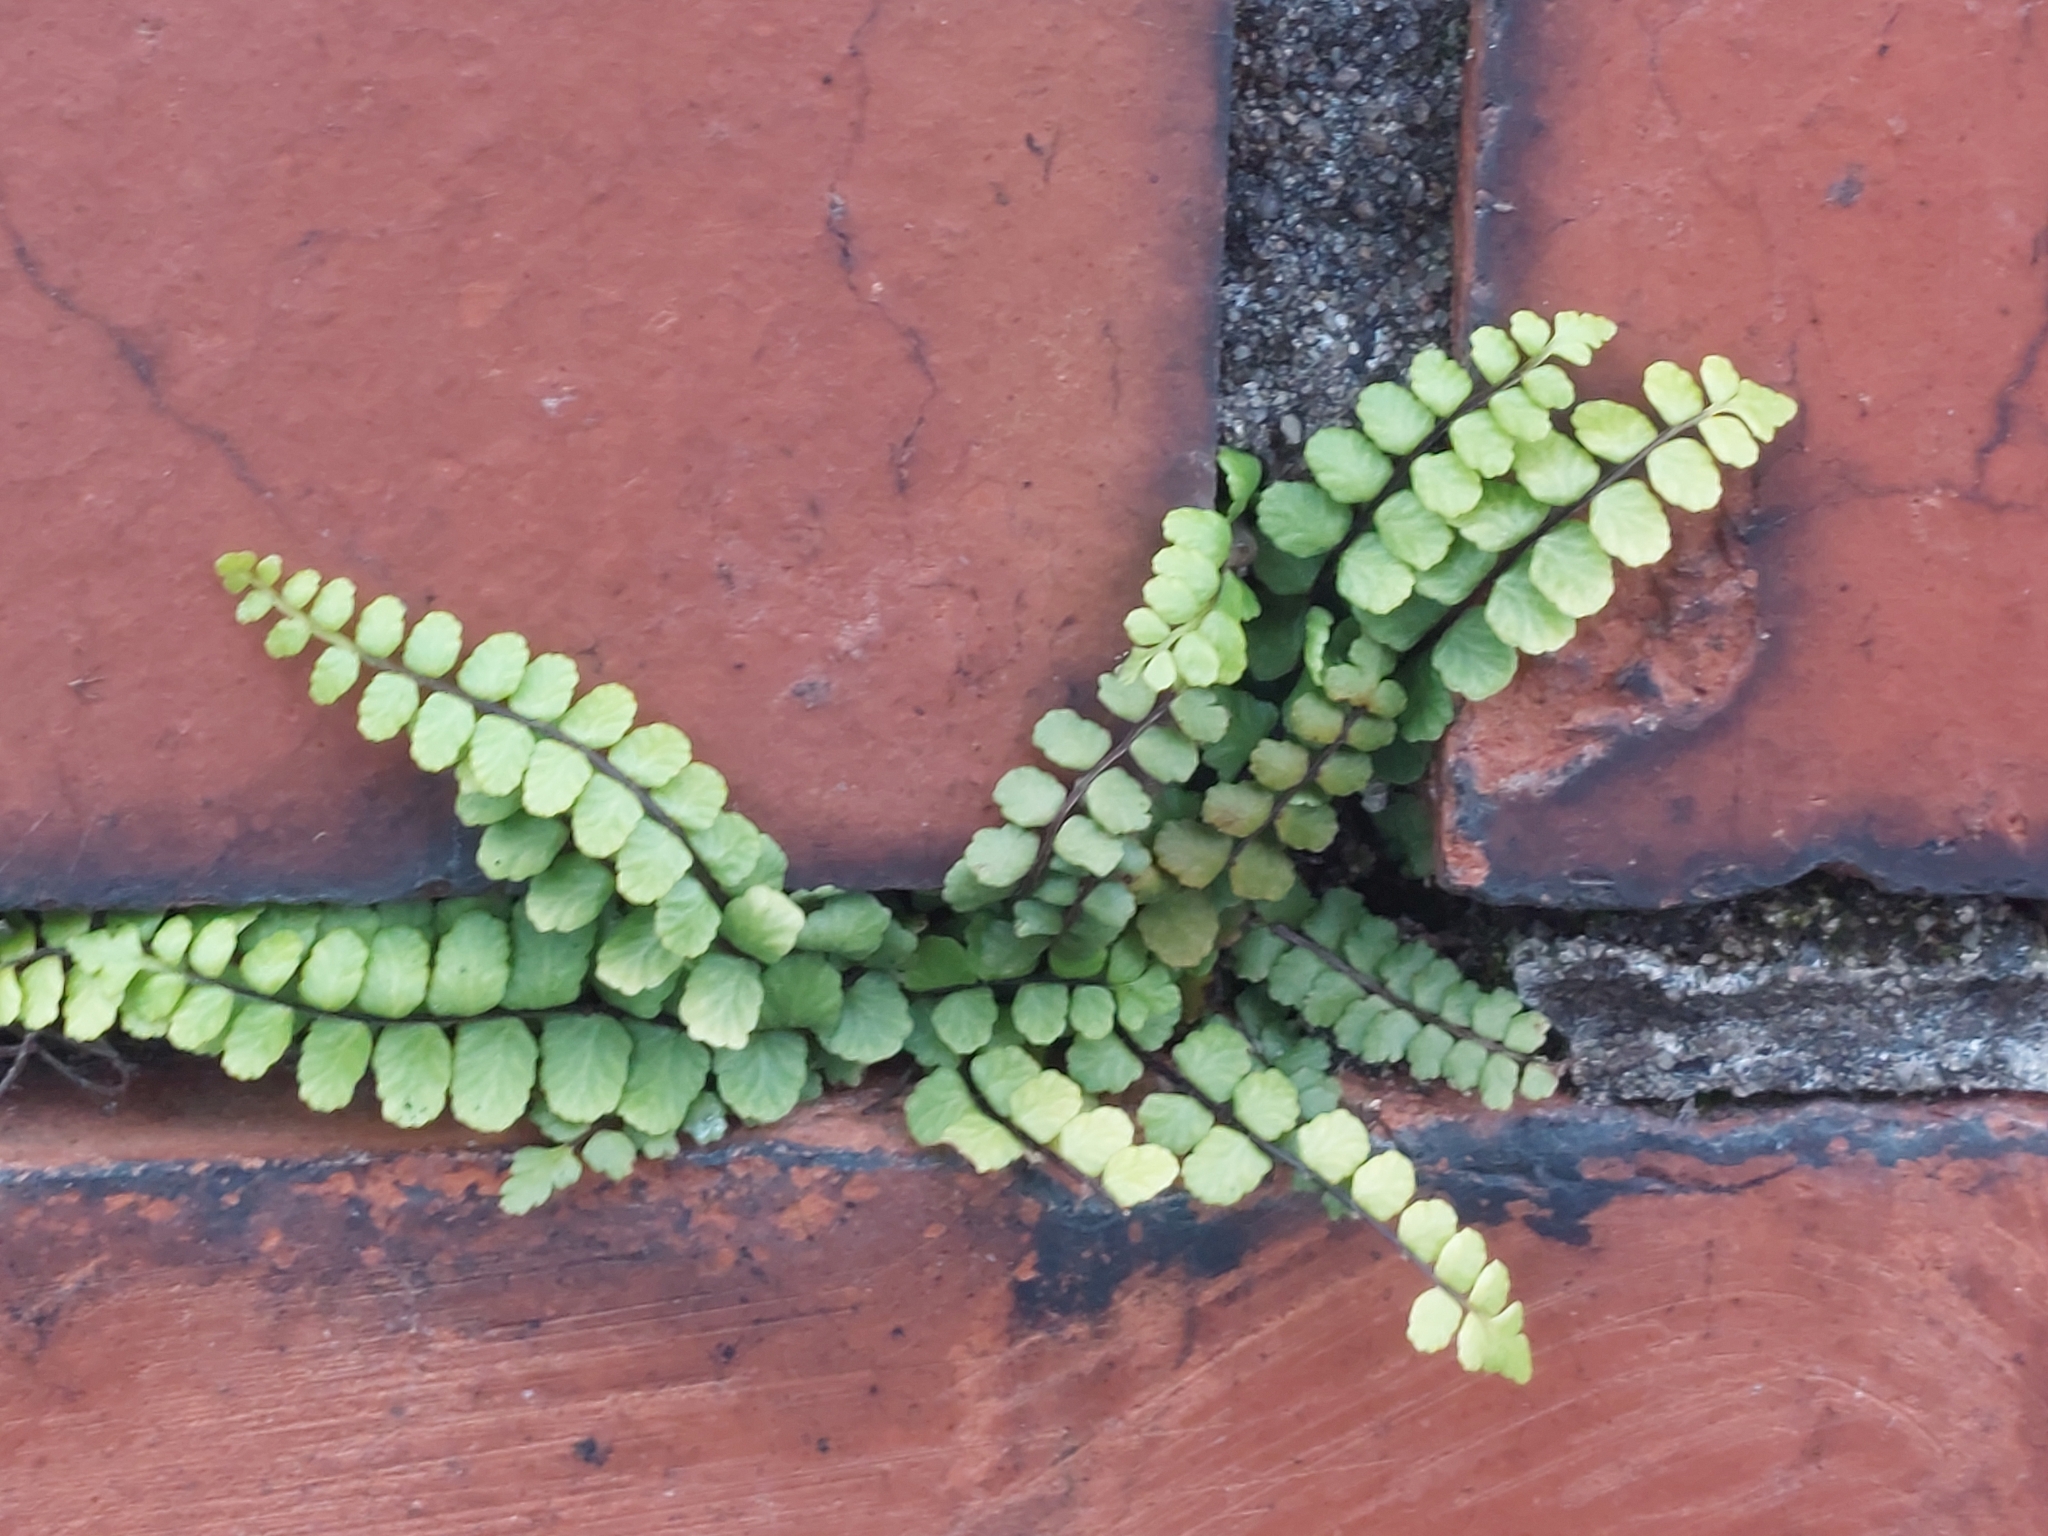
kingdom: Plantae
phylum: Tracheophyta
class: Polypodiopsida
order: Polypodiales
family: Aspleniaceae
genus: Asplenium
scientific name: Asplenium trichomanes
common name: Maidenhair spleenwort
